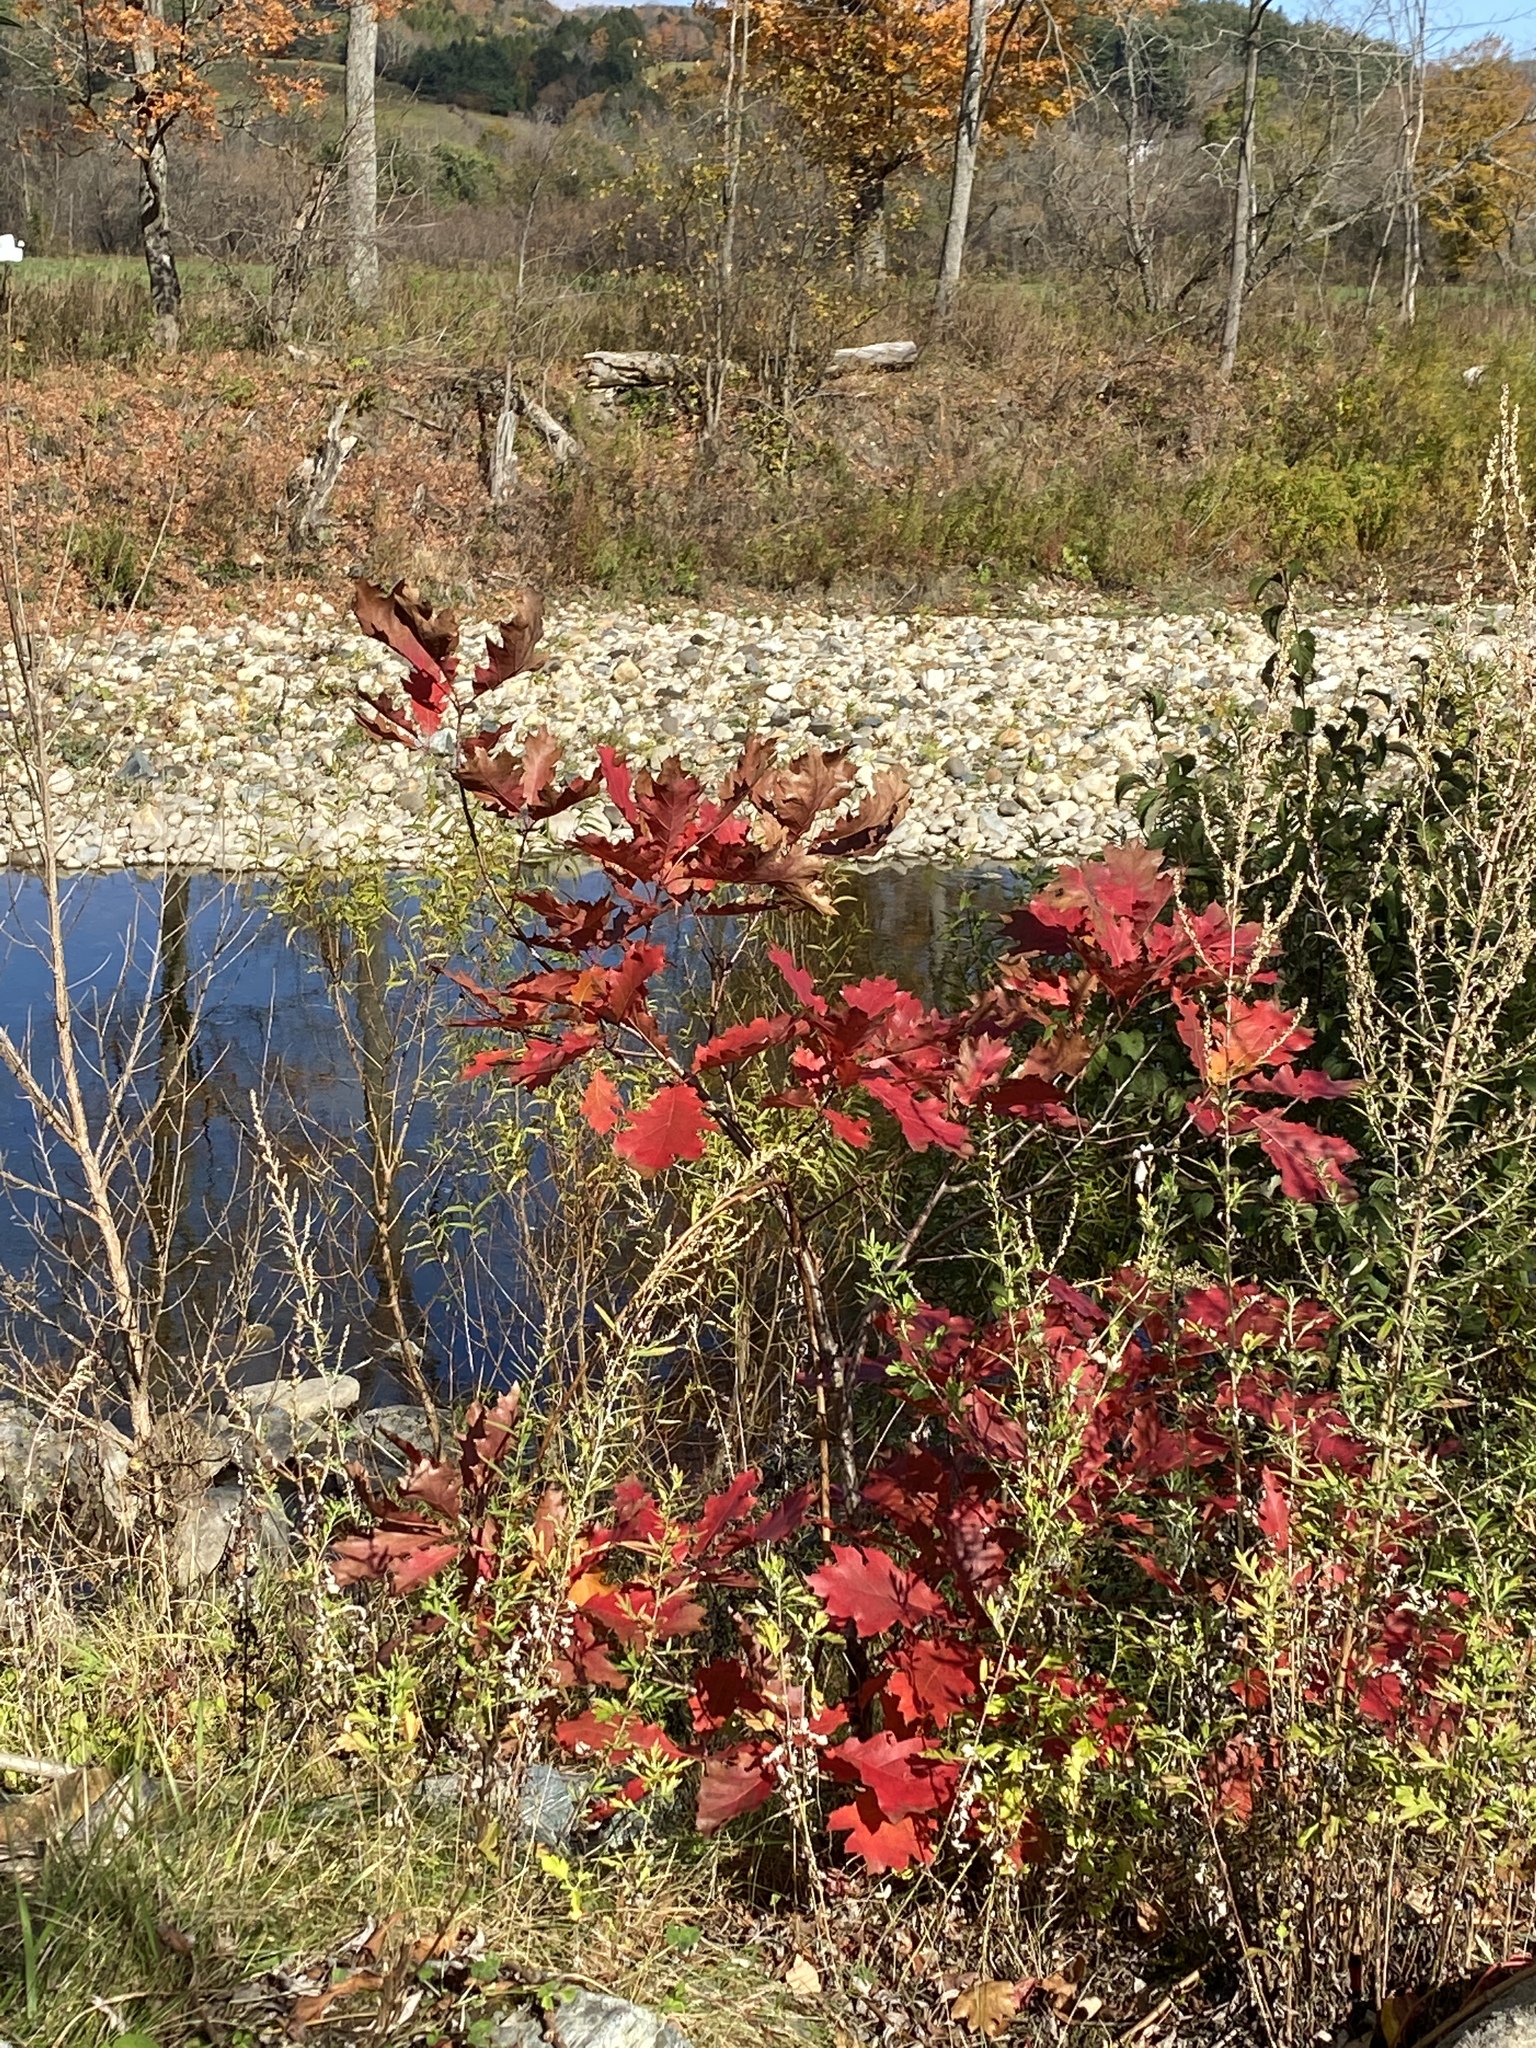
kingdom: Plantae
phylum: Tracheophyta
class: Magnoliopsida
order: Fagales
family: Fagaceae
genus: Quercus
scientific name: Quercus rubra
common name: Red oak
